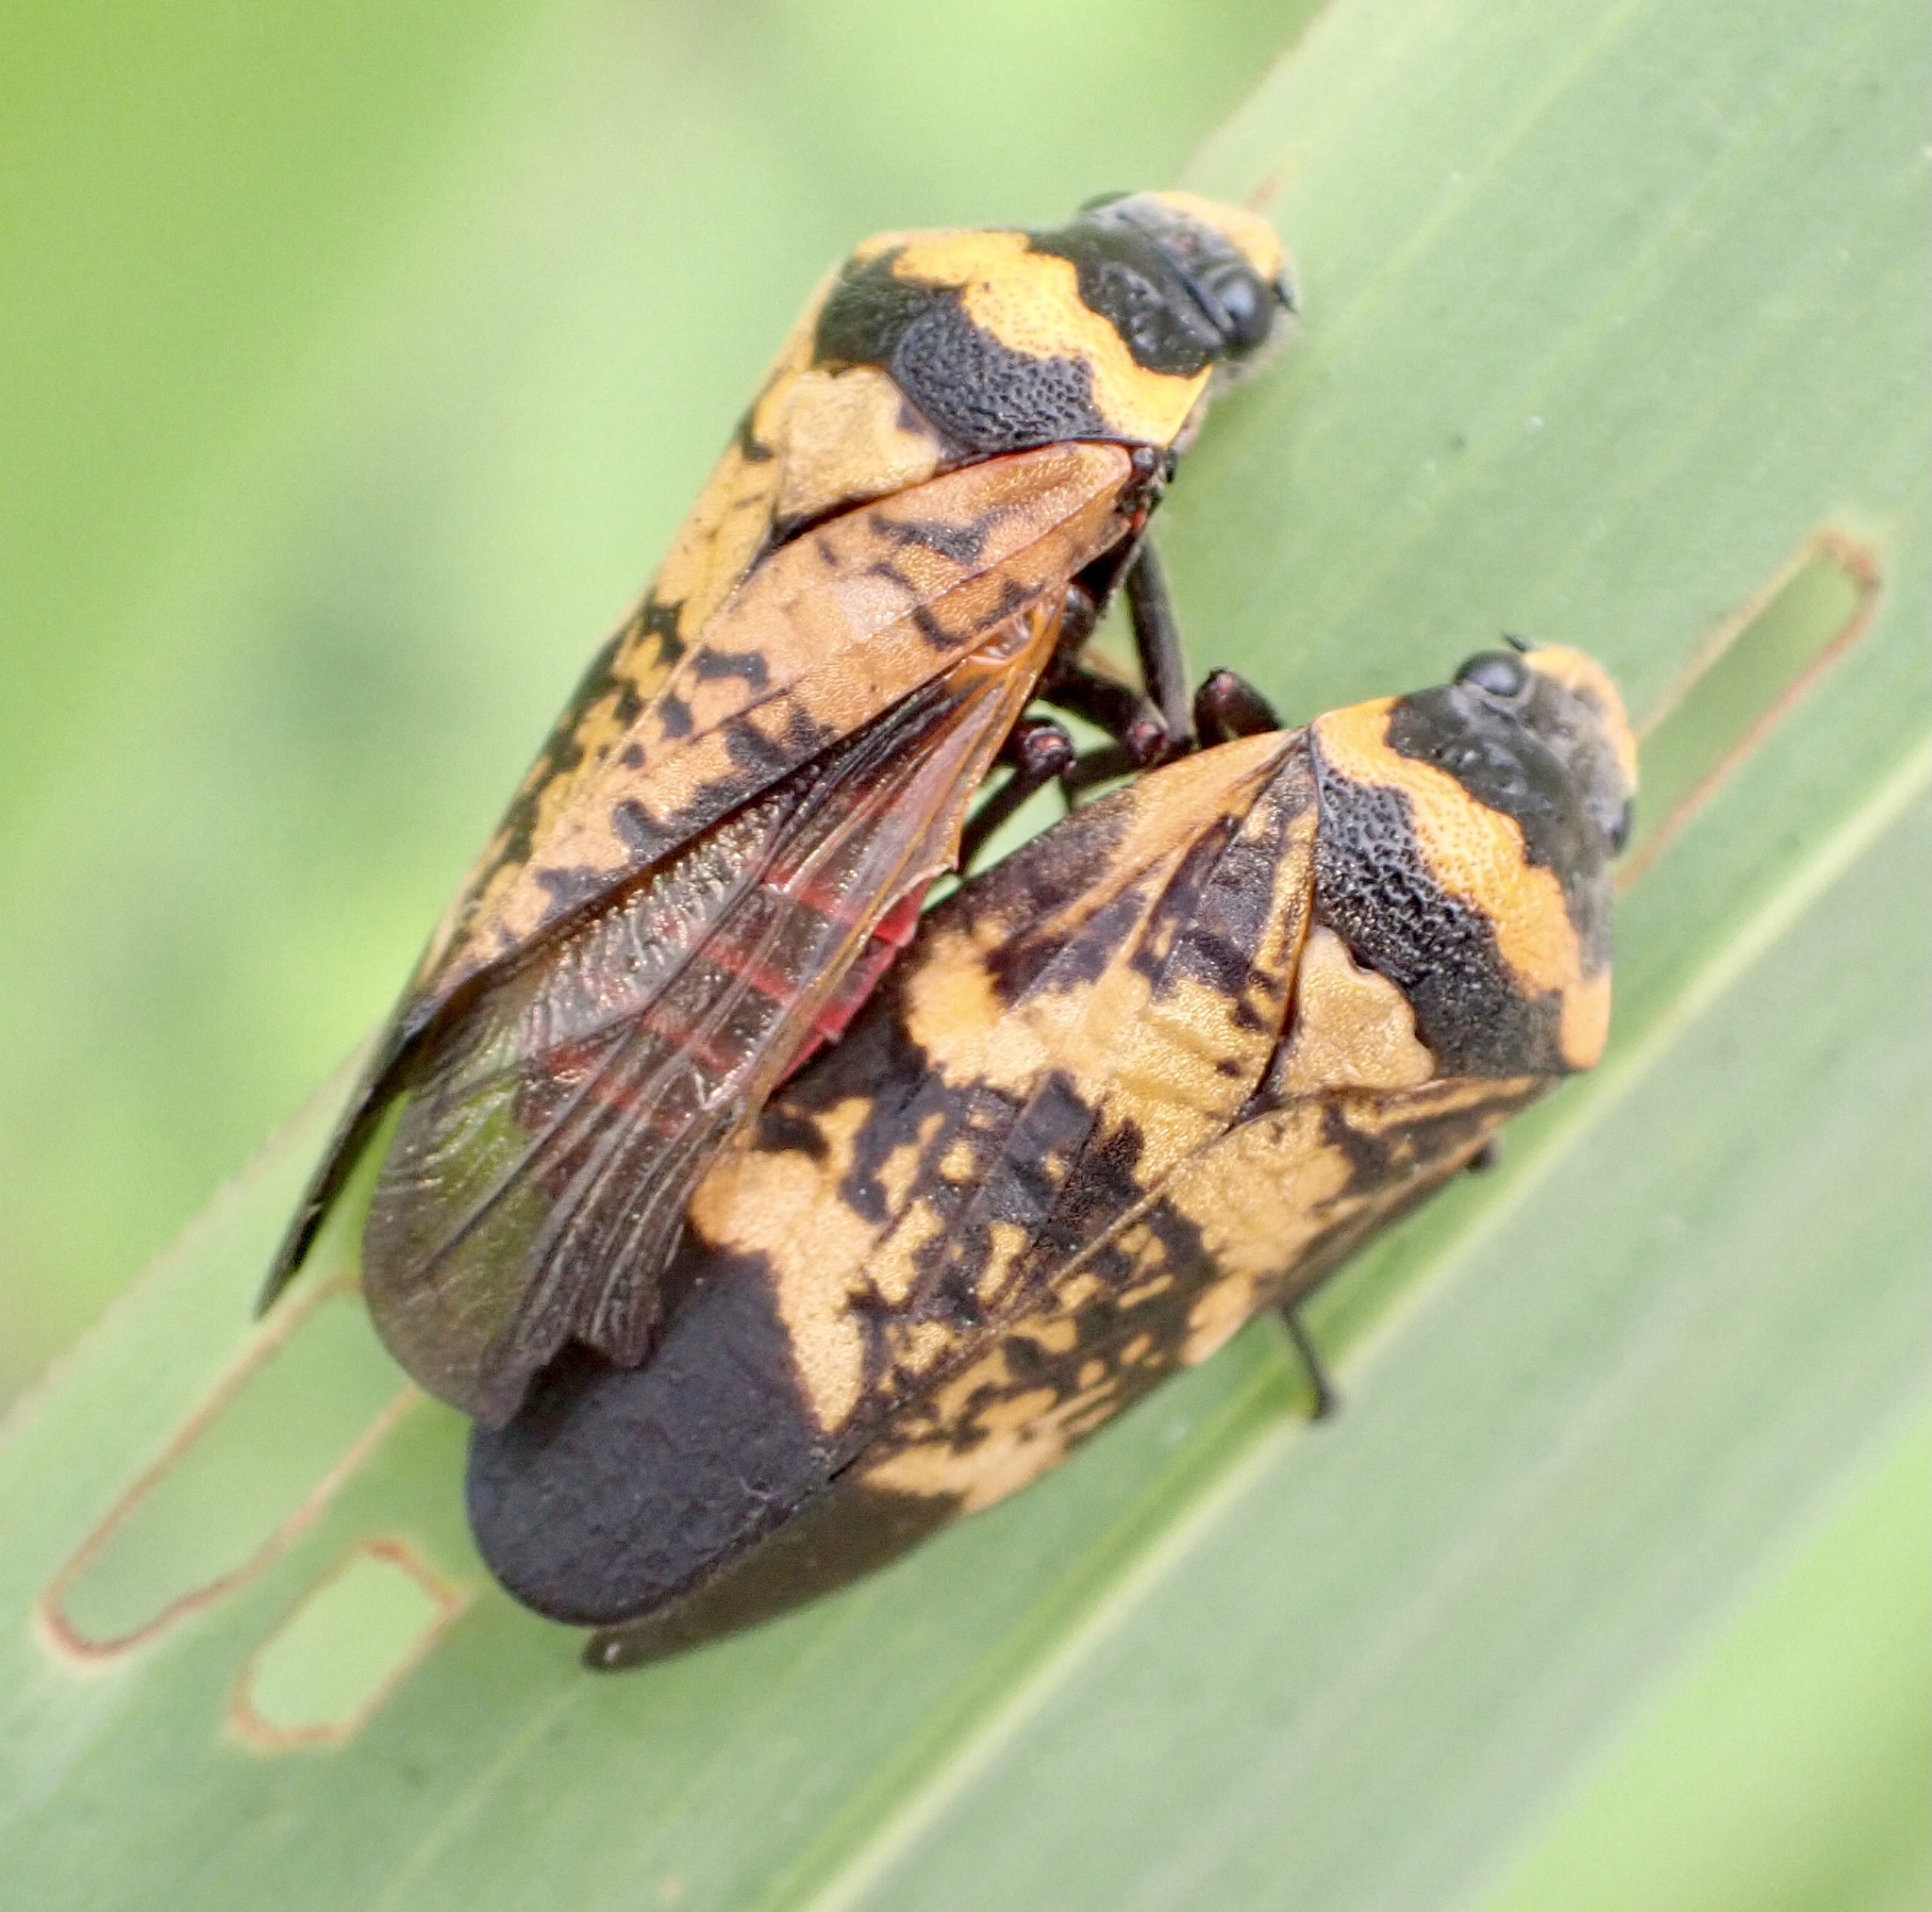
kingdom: Animalia
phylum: Arthropoda
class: Insecta
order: Hemiptera
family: Cercopidae
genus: Locris
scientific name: Locris maculata
